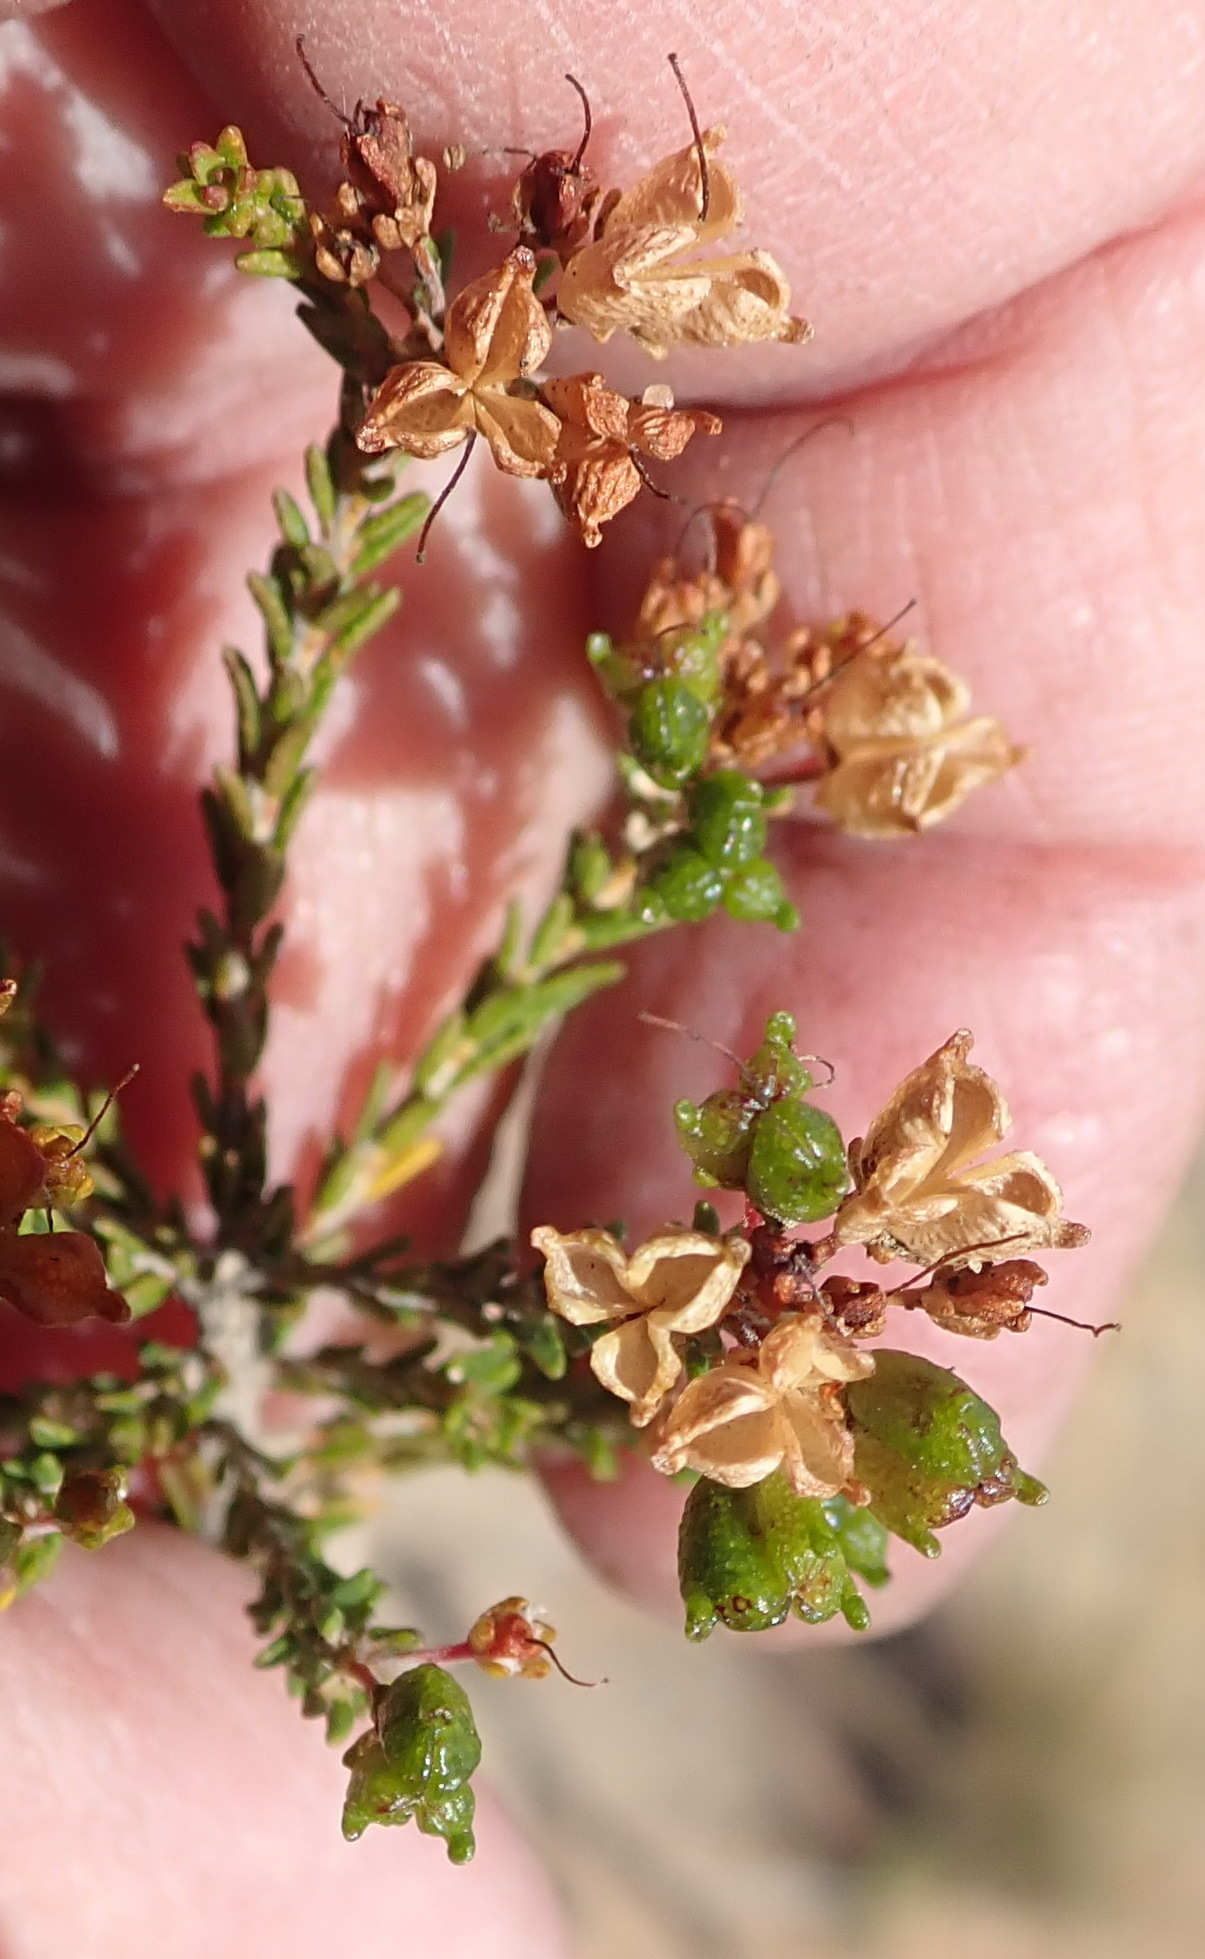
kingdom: Plantae
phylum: Tracheophyta
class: Magnoliopsida
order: Sapindales
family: Rutaceae
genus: Agathosma
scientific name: Agathosma capensis
